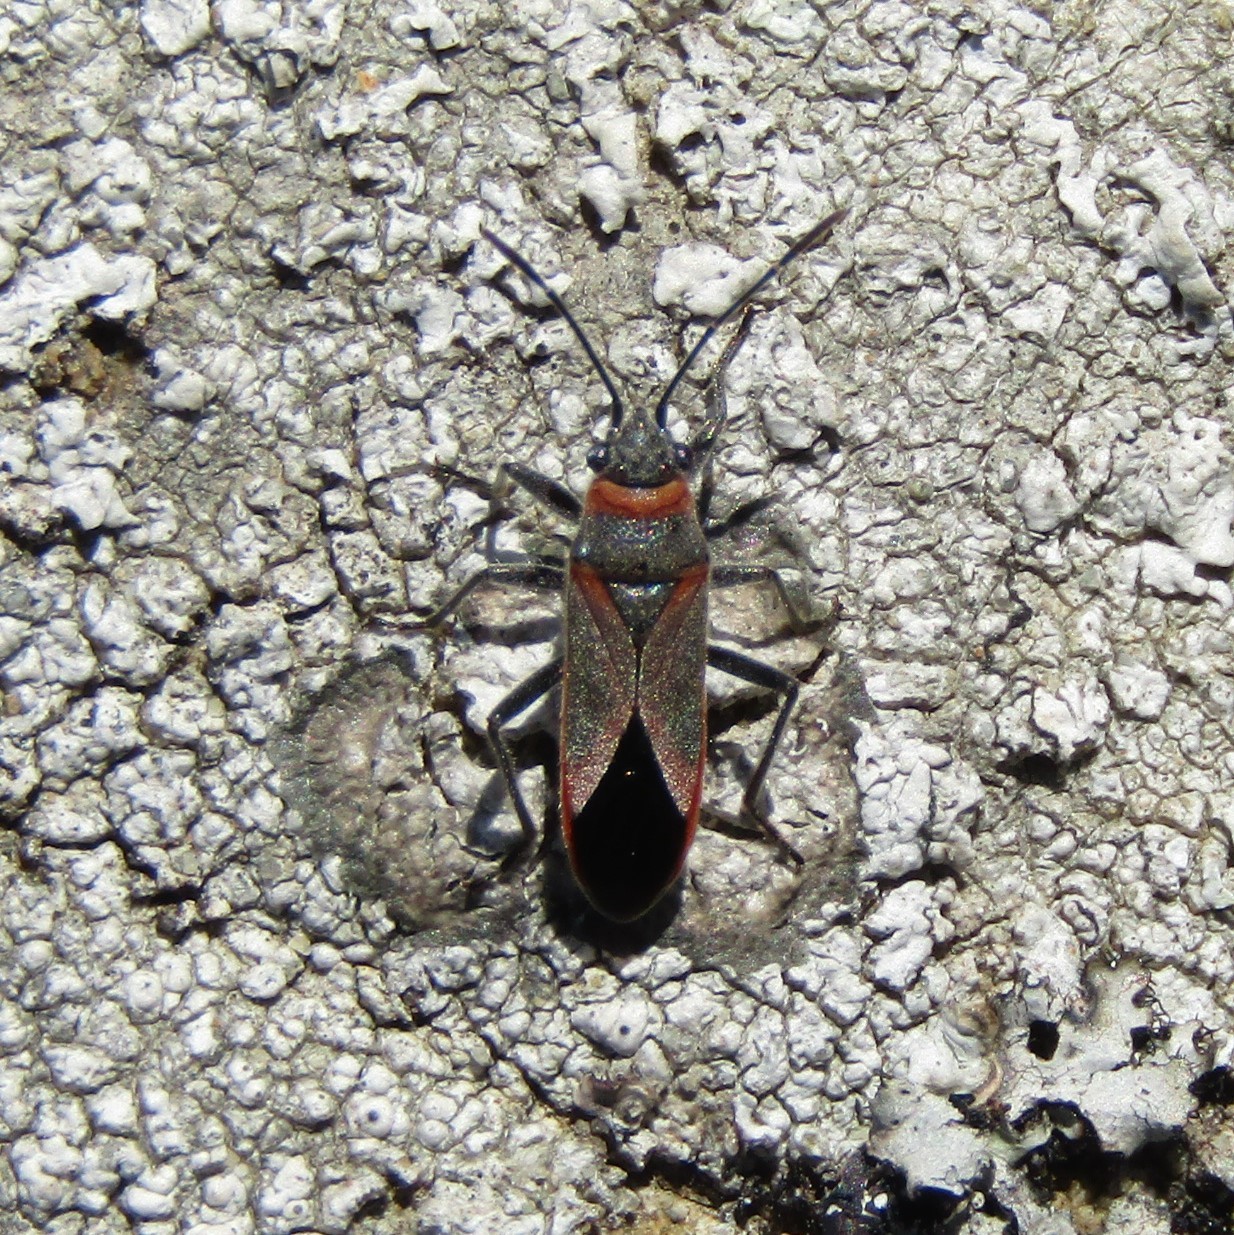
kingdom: Animalia
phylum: Arthropoda
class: Insecta
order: Hemiptera
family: Lygaeidae
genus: Arocatus
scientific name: Arocatus rusticus
